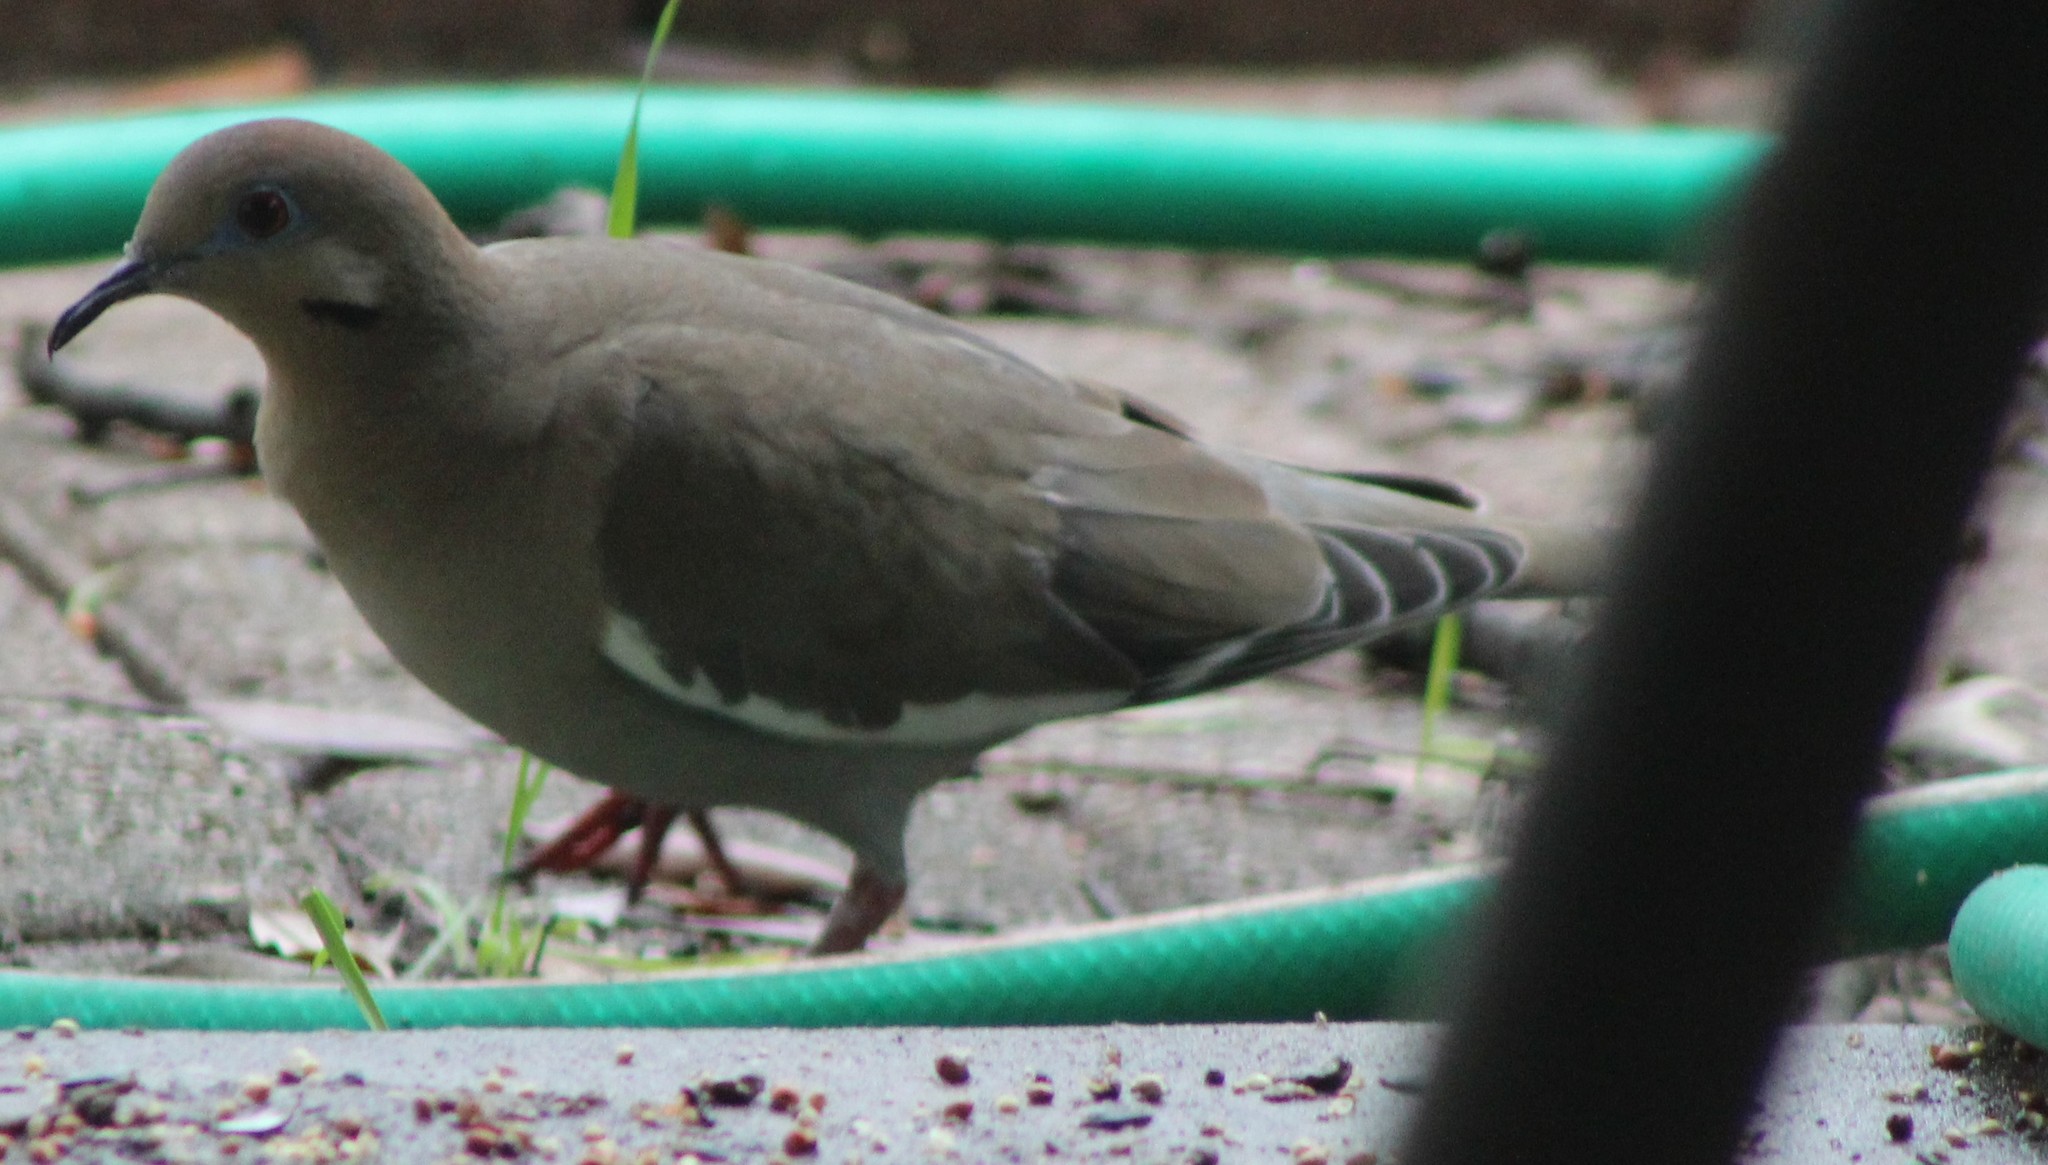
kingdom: Animalia
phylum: Chordata
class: Aves
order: Columbiformes
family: Columbidae
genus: Zenaida
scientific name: Zenaida asiatica
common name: White-winged dove
